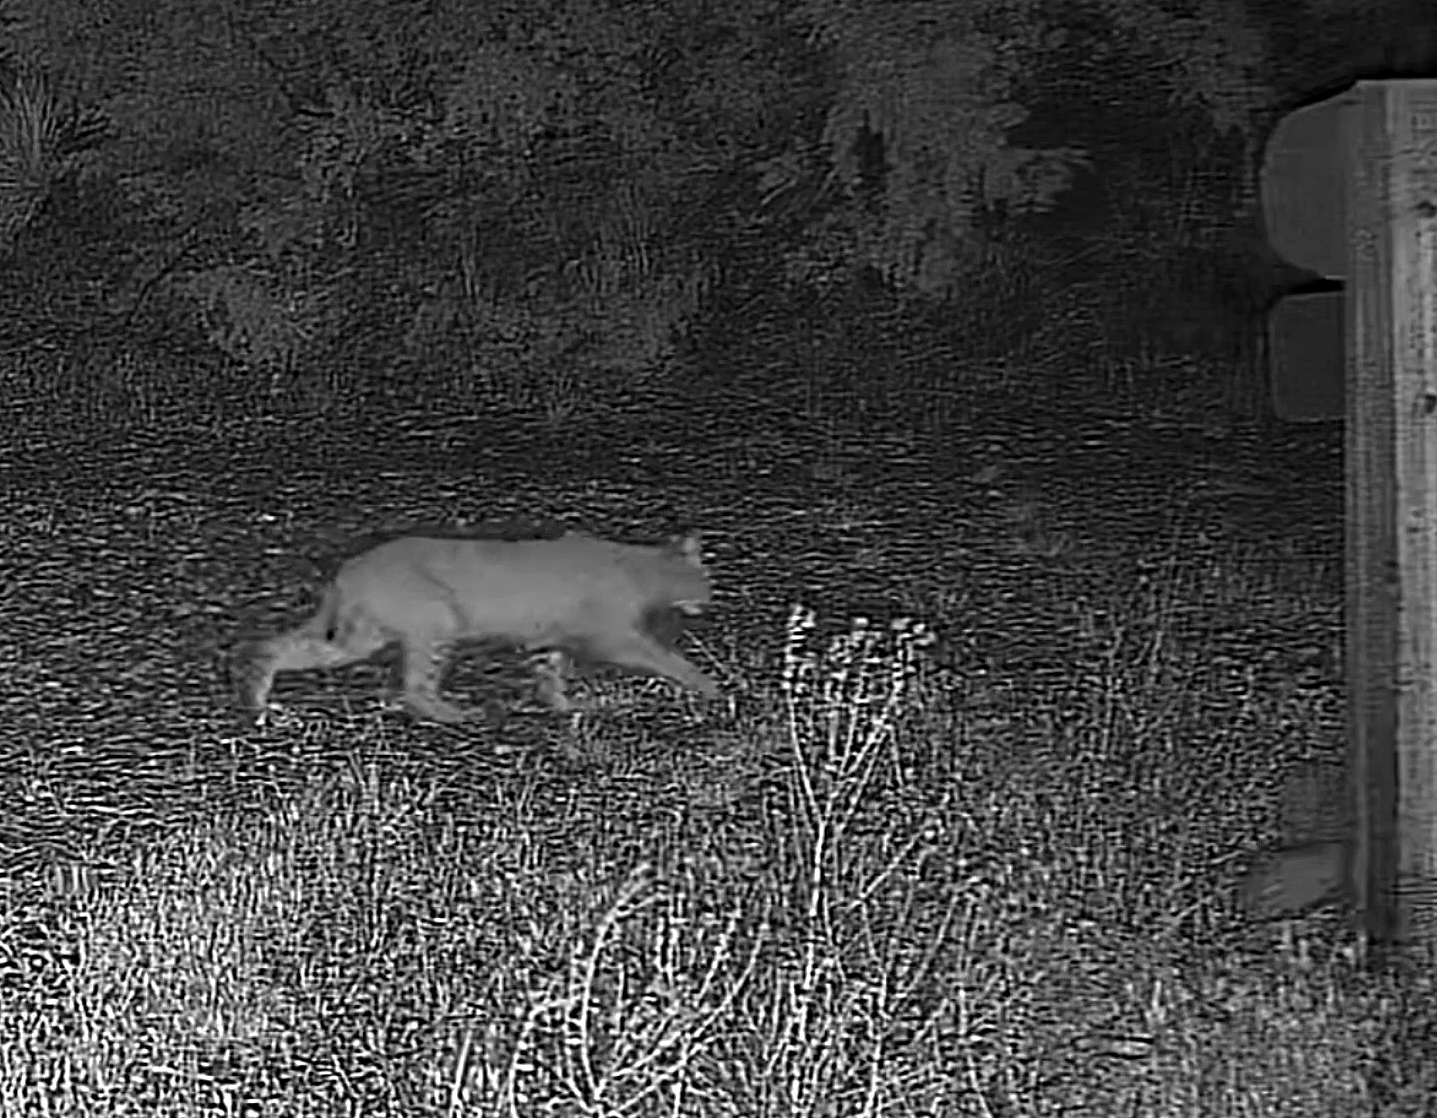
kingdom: Animalia
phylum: Chordata
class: Mammalia
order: Carnivora
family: Felidae
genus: Lynx
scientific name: Lynx rufus
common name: Bobcat
